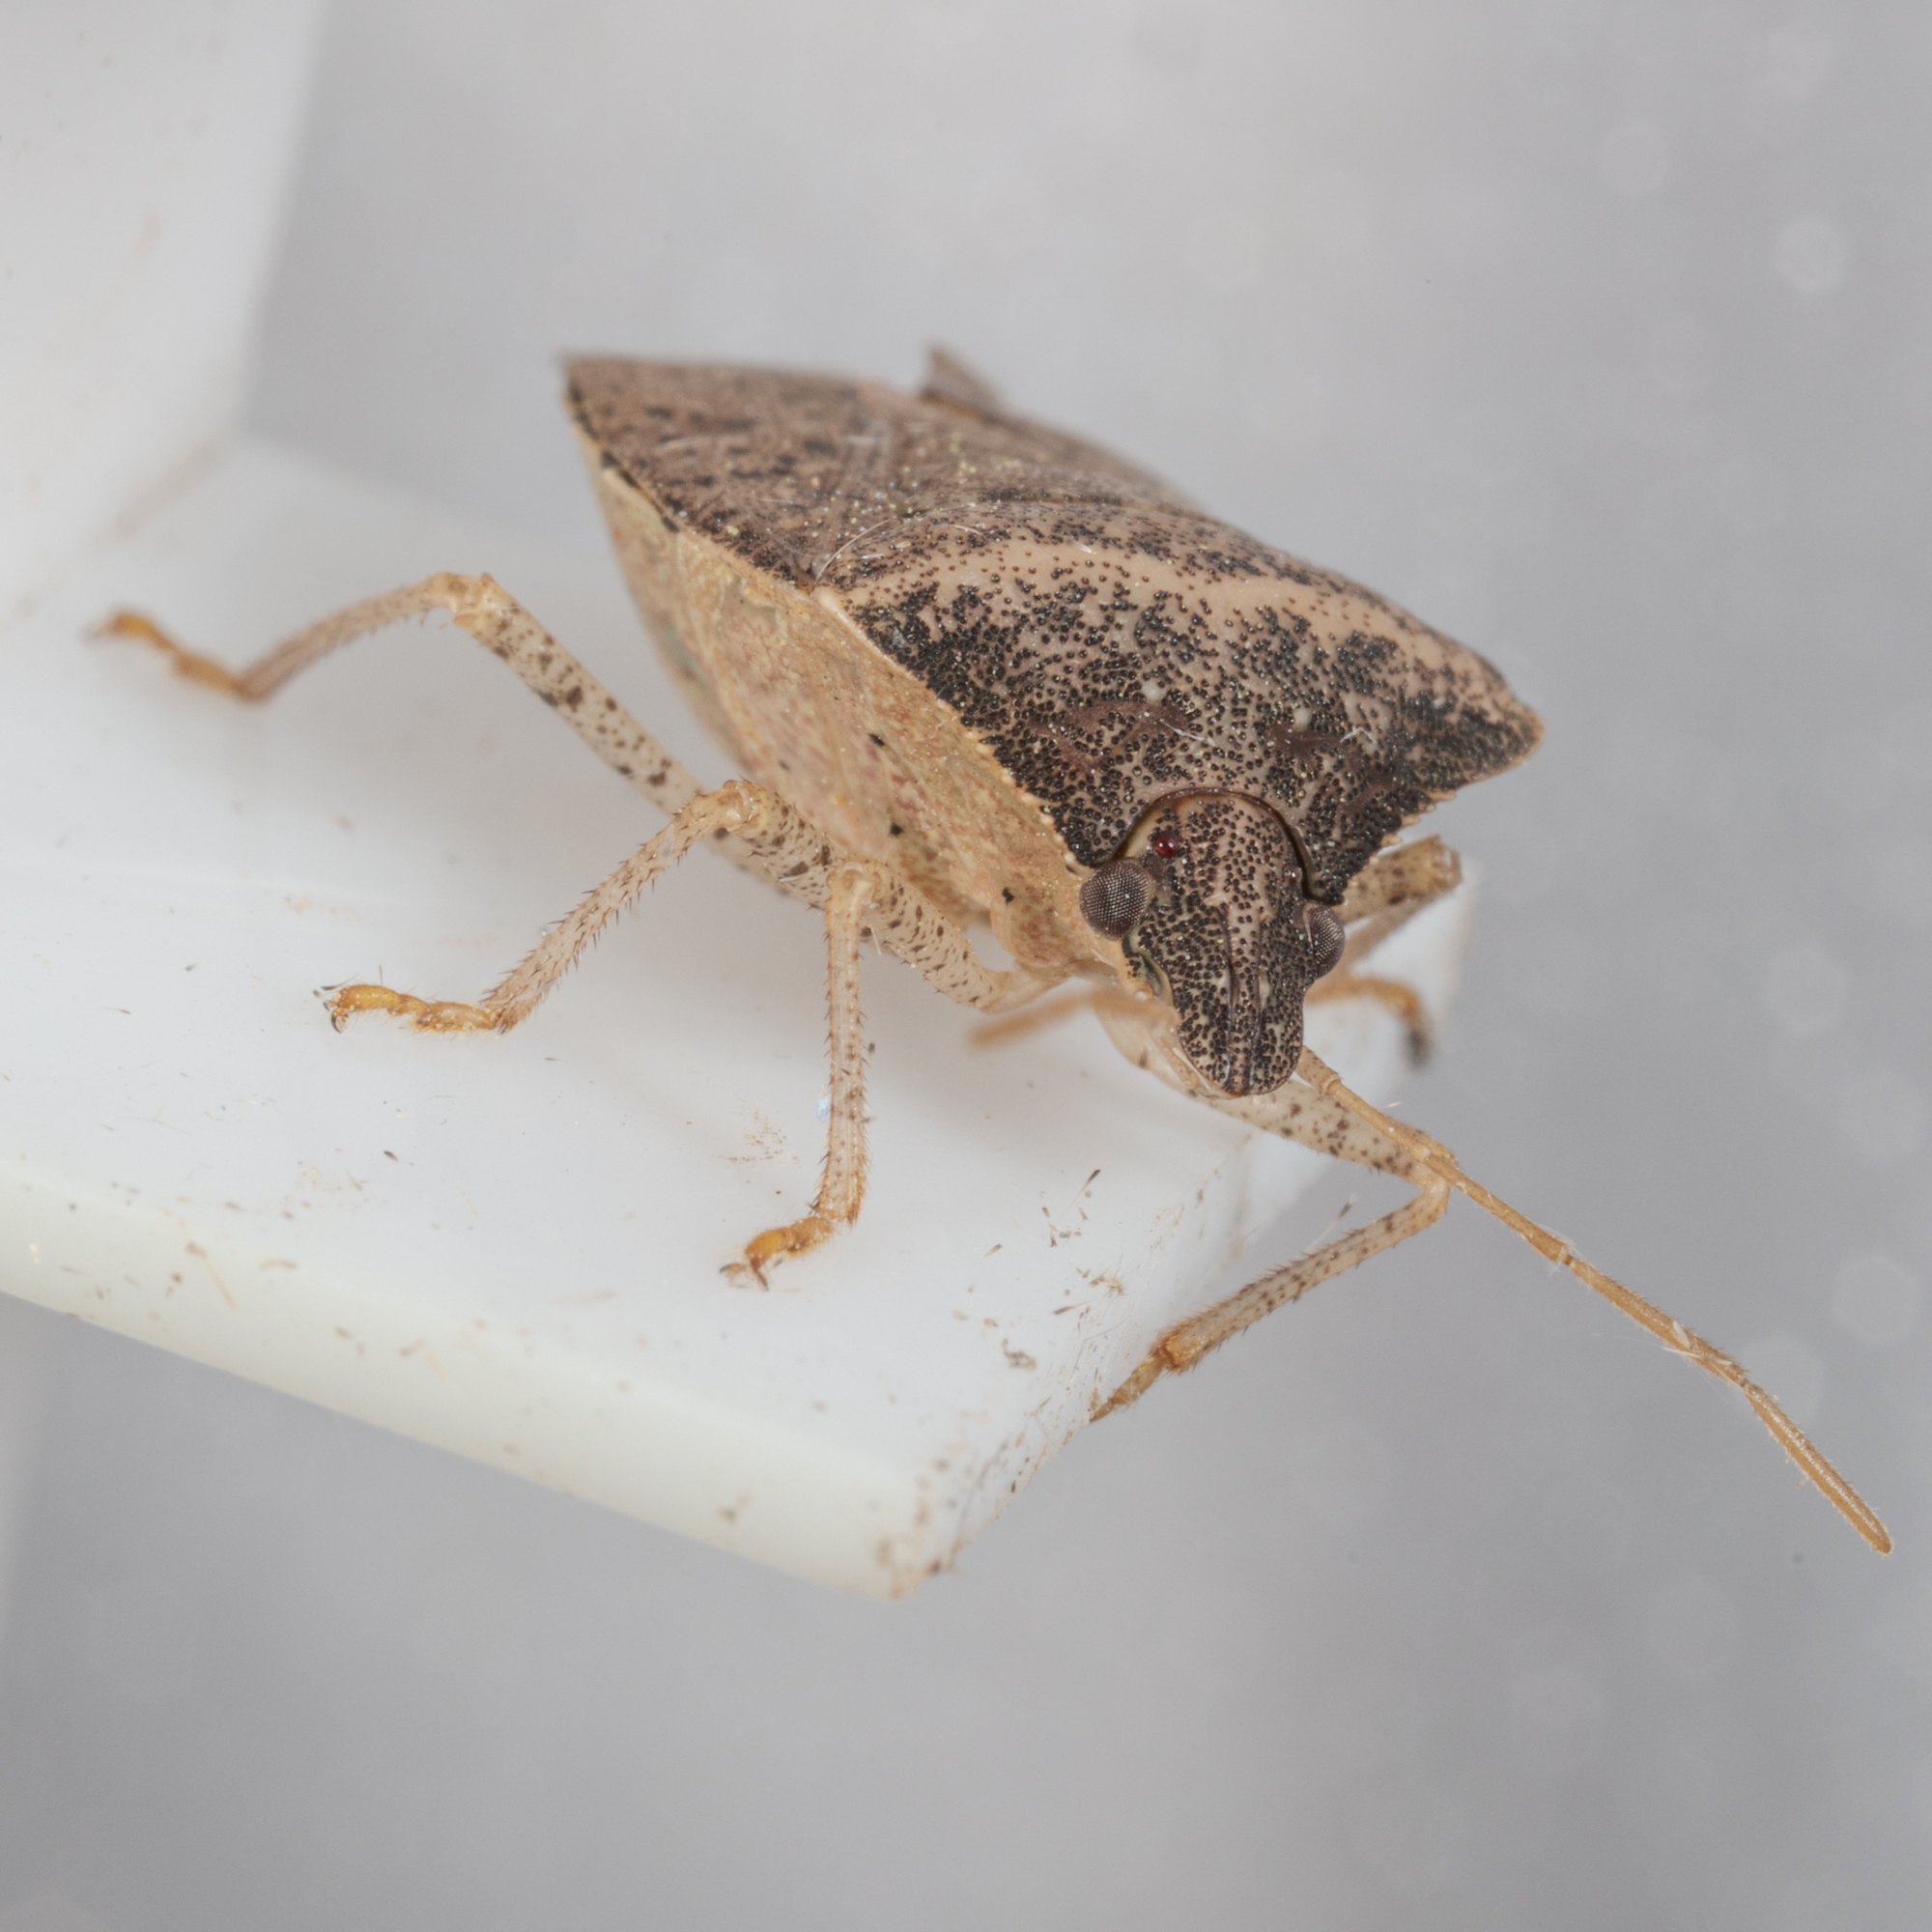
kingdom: Animalia
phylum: Arthropoda
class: Insecta
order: Hemiptera
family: Pentatomidae
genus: Euschistus
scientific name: Euschistus obscurus
